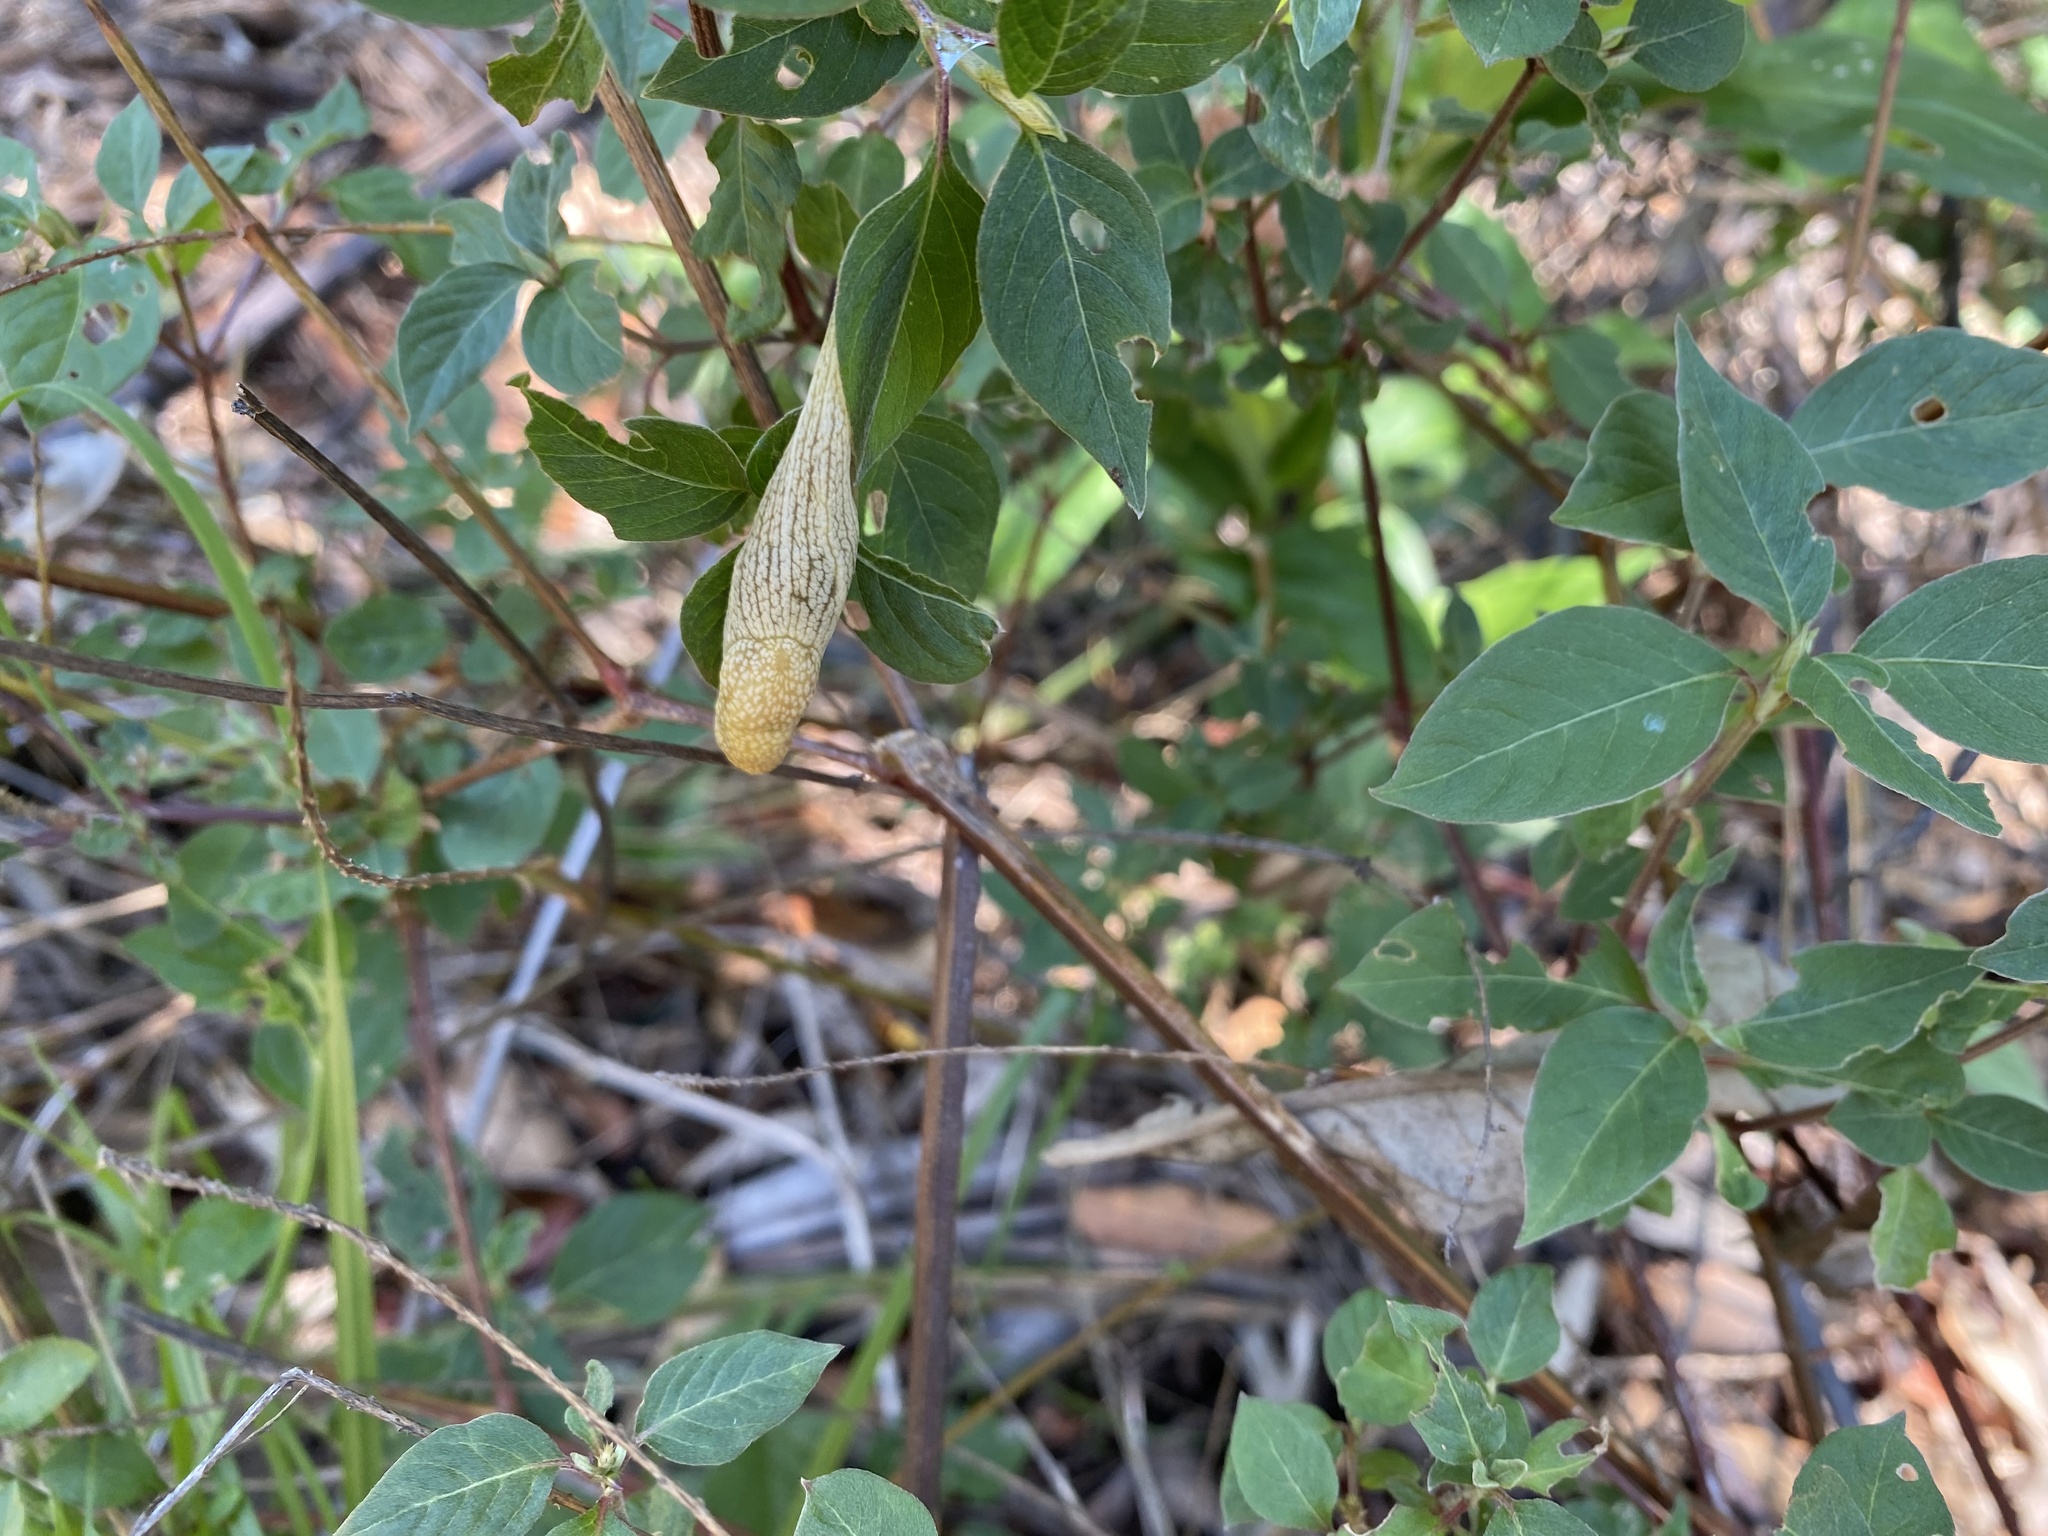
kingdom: Animalia
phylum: Mollusca
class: Gastropoda
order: Stylommatophora
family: Urocyclidae
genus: Elisolimax
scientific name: Elisolimax flavescens
